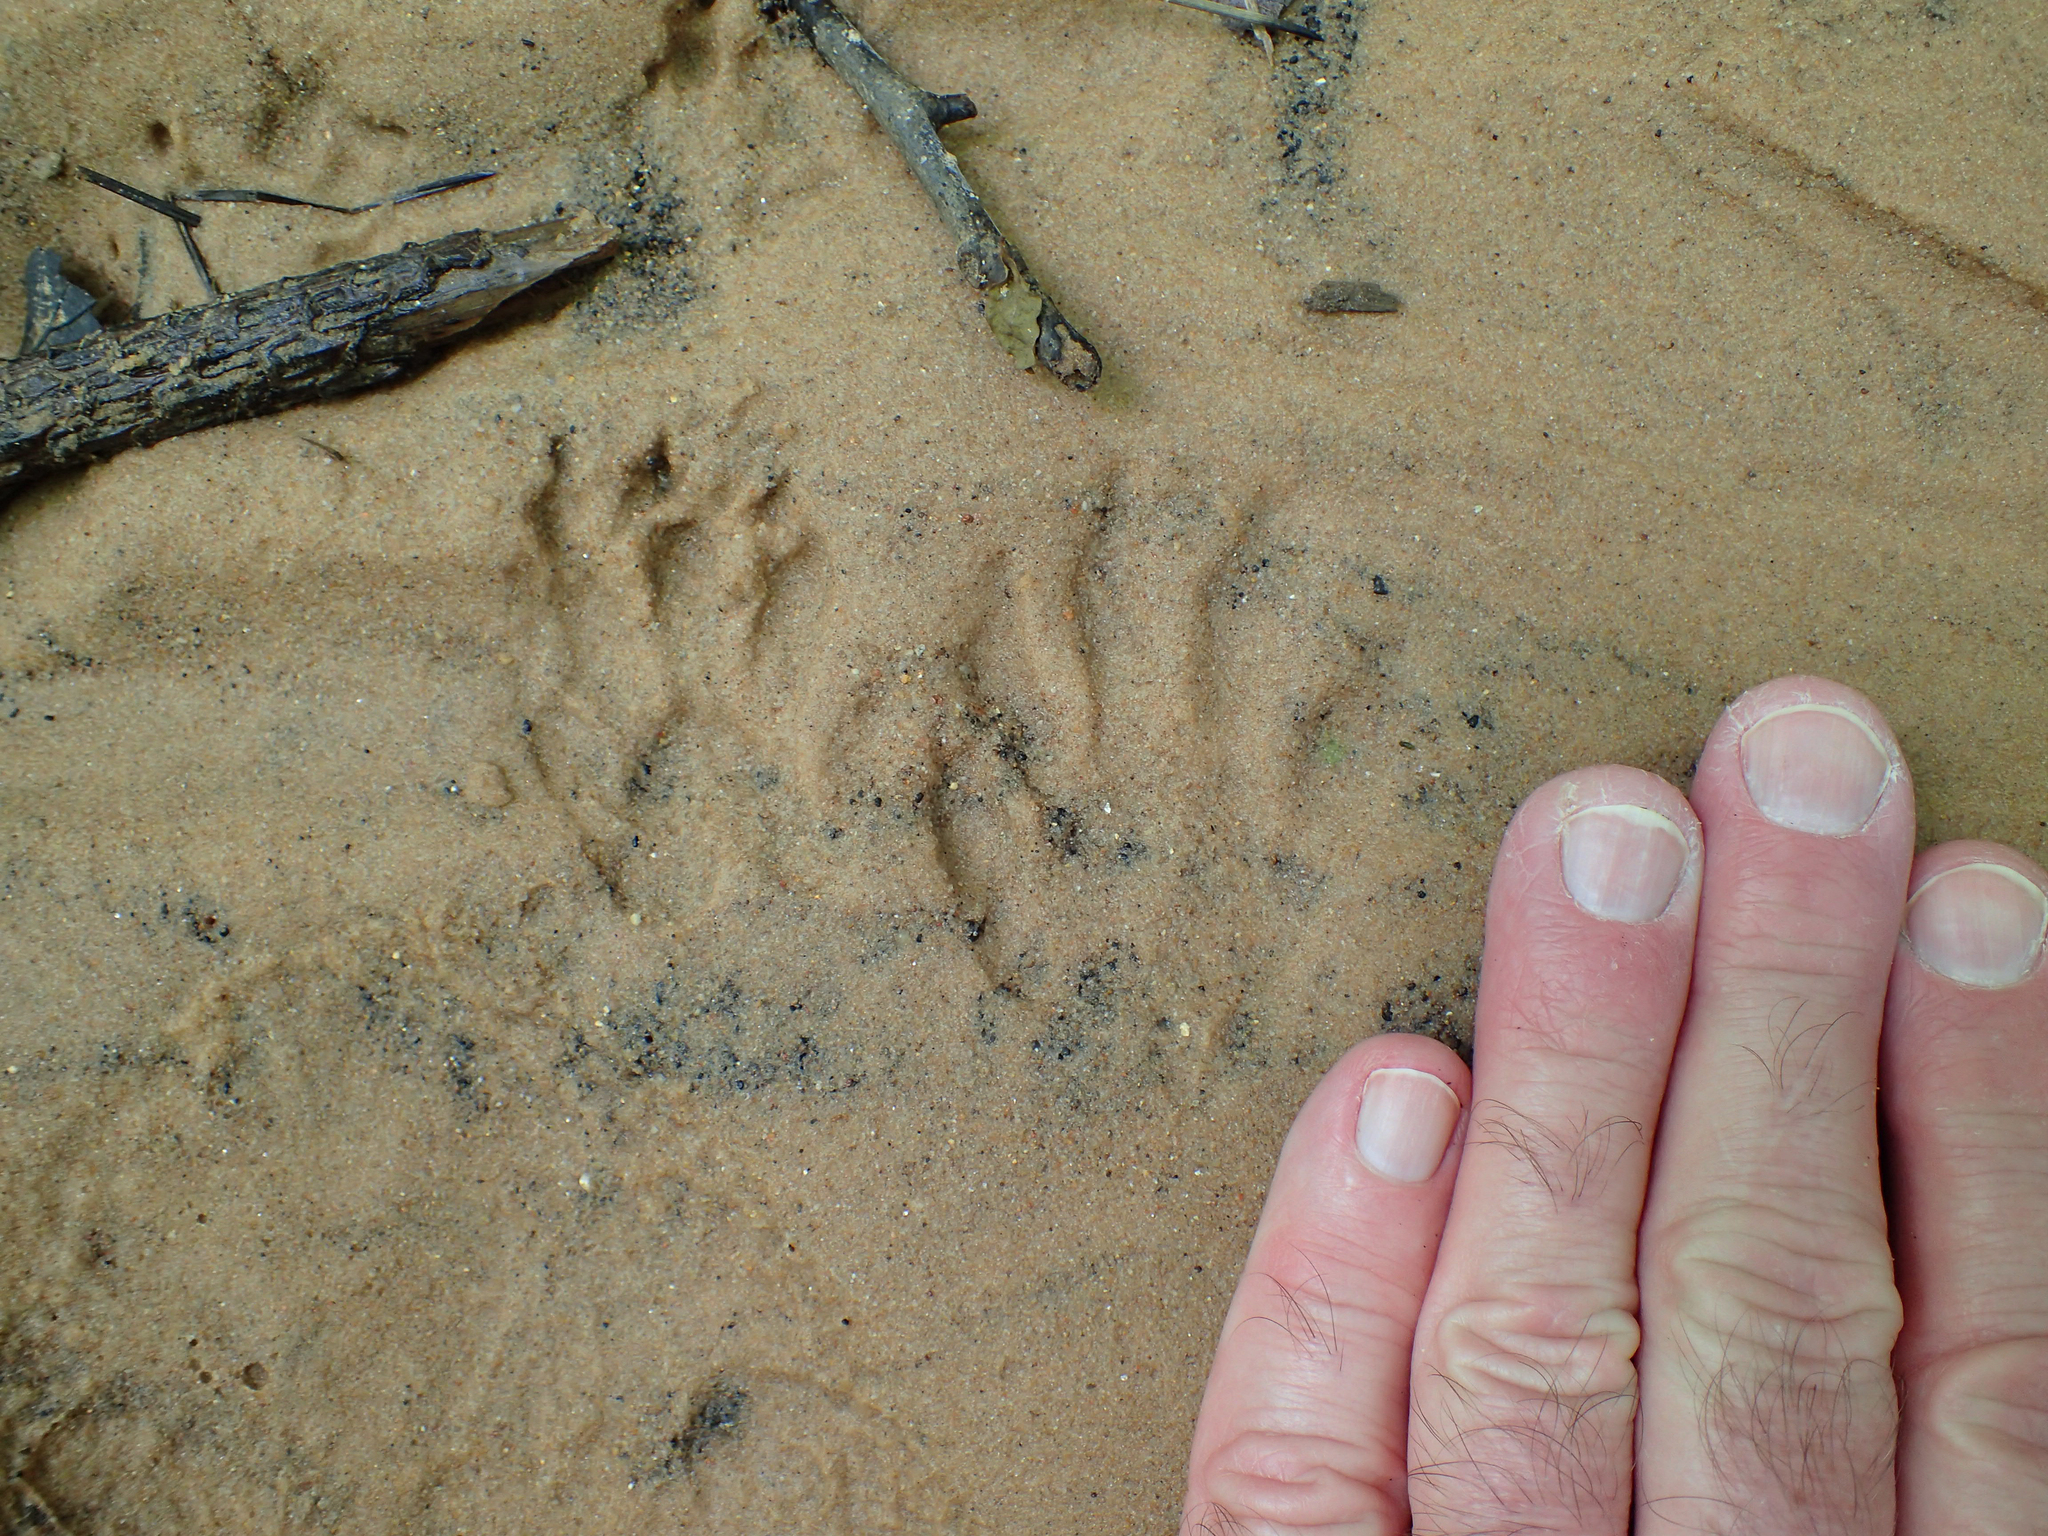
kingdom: Animalia
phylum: Chordata
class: Mammalia
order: Carnivora
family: Procyonidae
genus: Procyon
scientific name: Procyon lotor
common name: Raccoon
